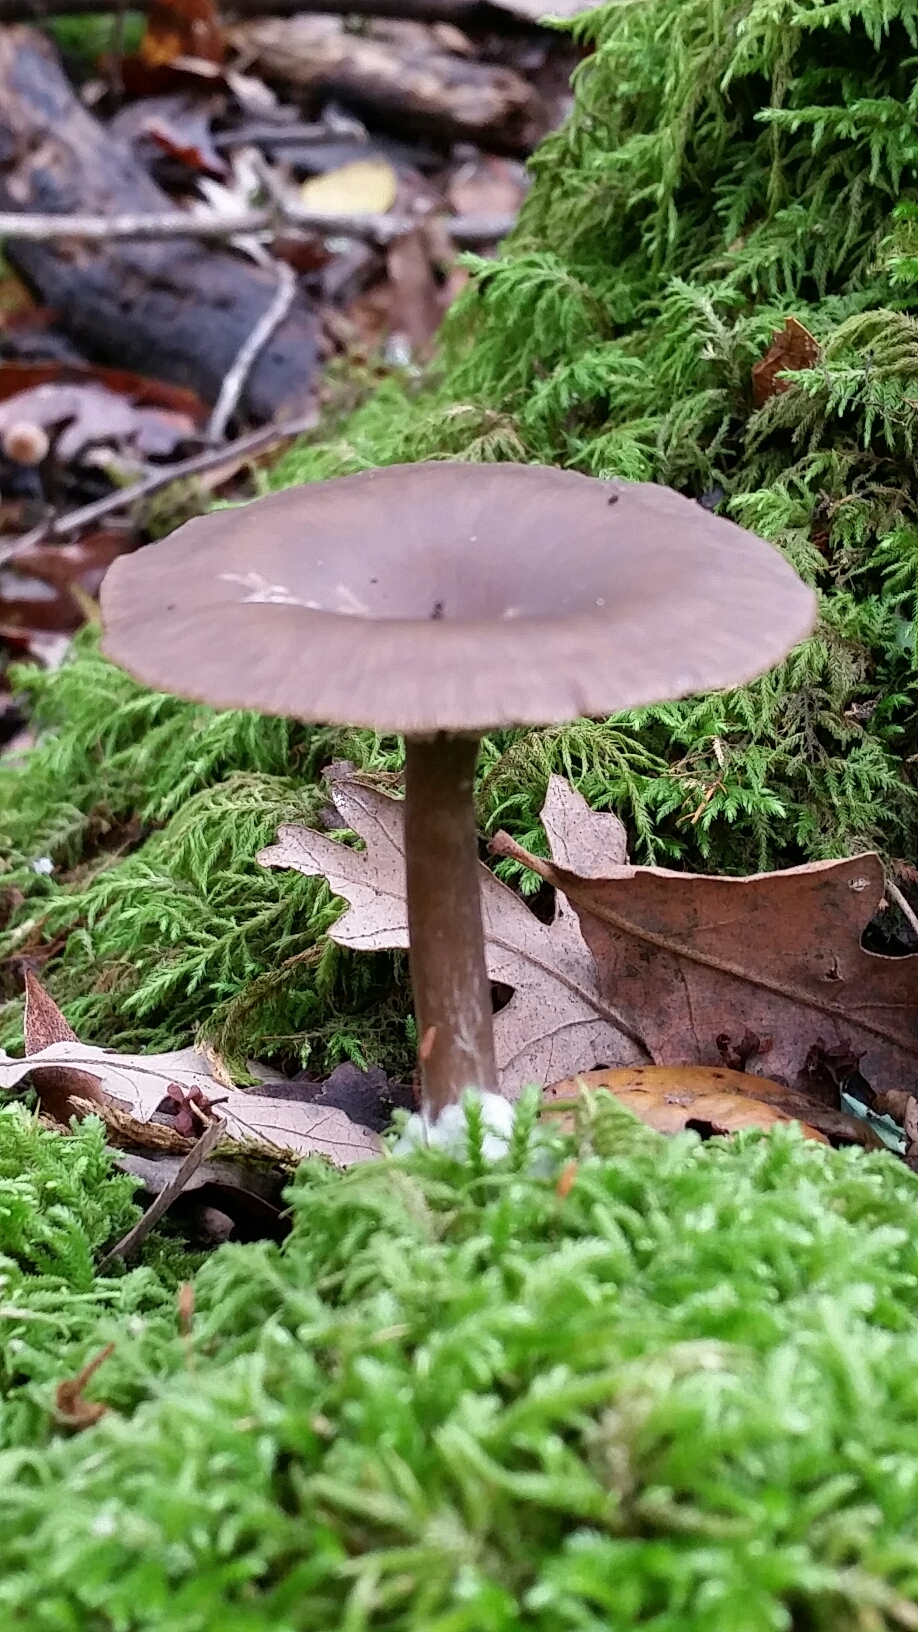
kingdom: Fungi
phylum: Basidiomycota
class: Agaricomycetes
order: Agaricales
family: Pseudoclitocybaceae
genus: Pseudoclitocybe
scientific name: Pseudoclitocybe cyathiformis
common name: Goblet
